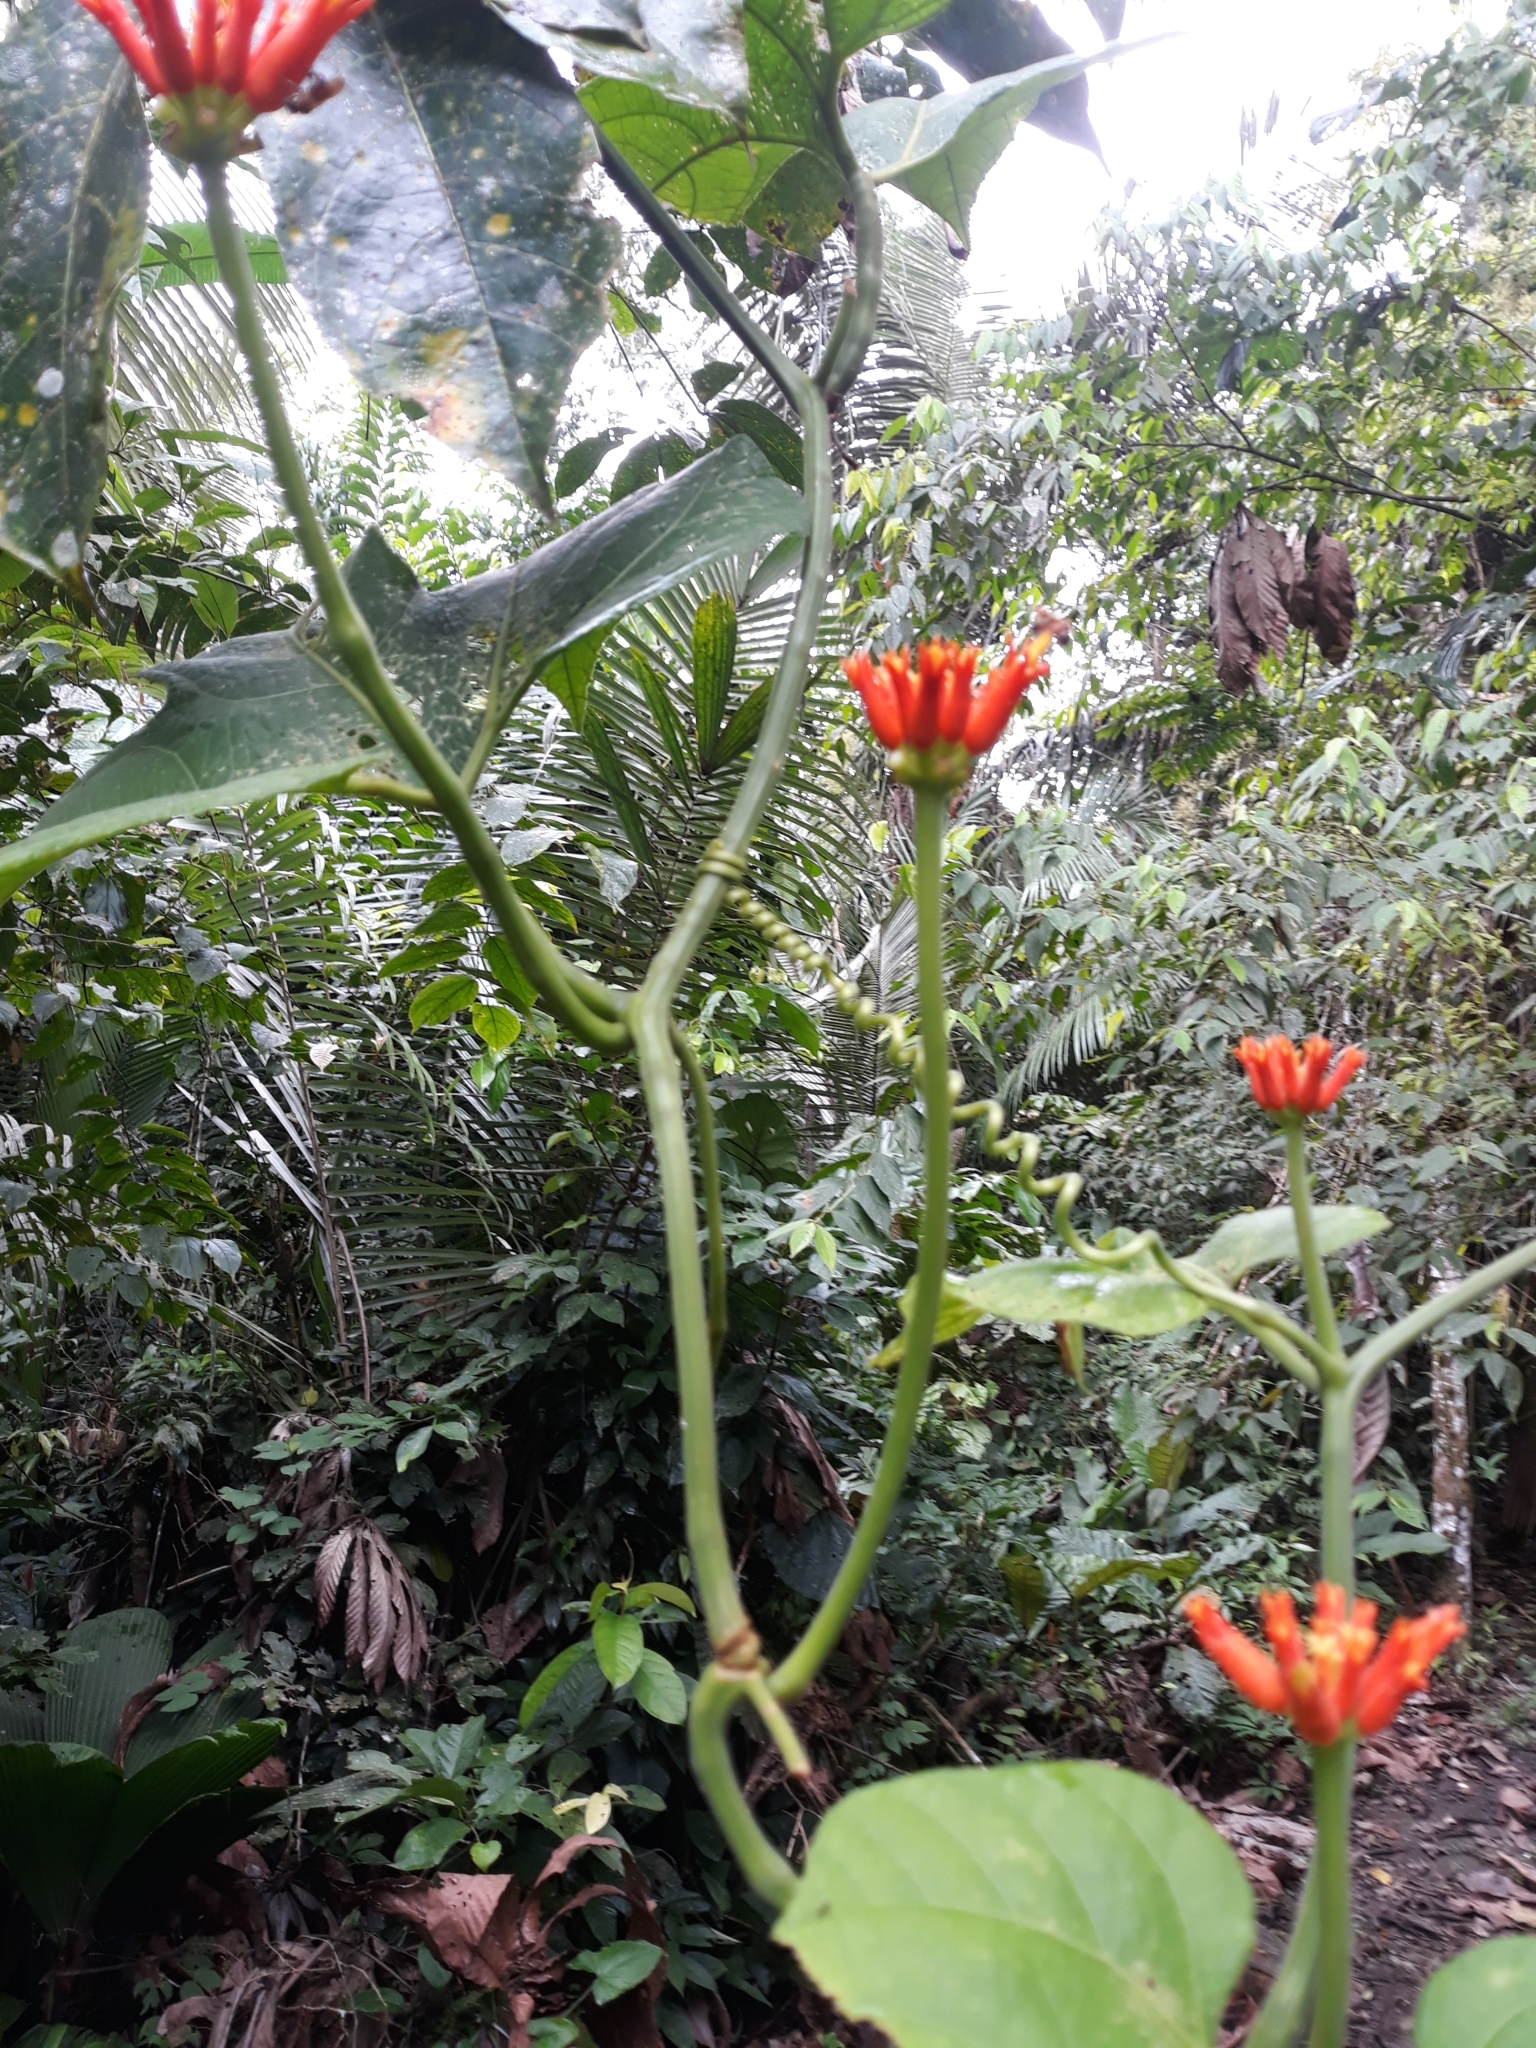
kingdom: Plantae
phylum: Tracheophyta
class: Magnoliopsida
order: Cucurbitales
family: Cucurbitaceae
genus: Gurania
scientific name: Gurania lobata
